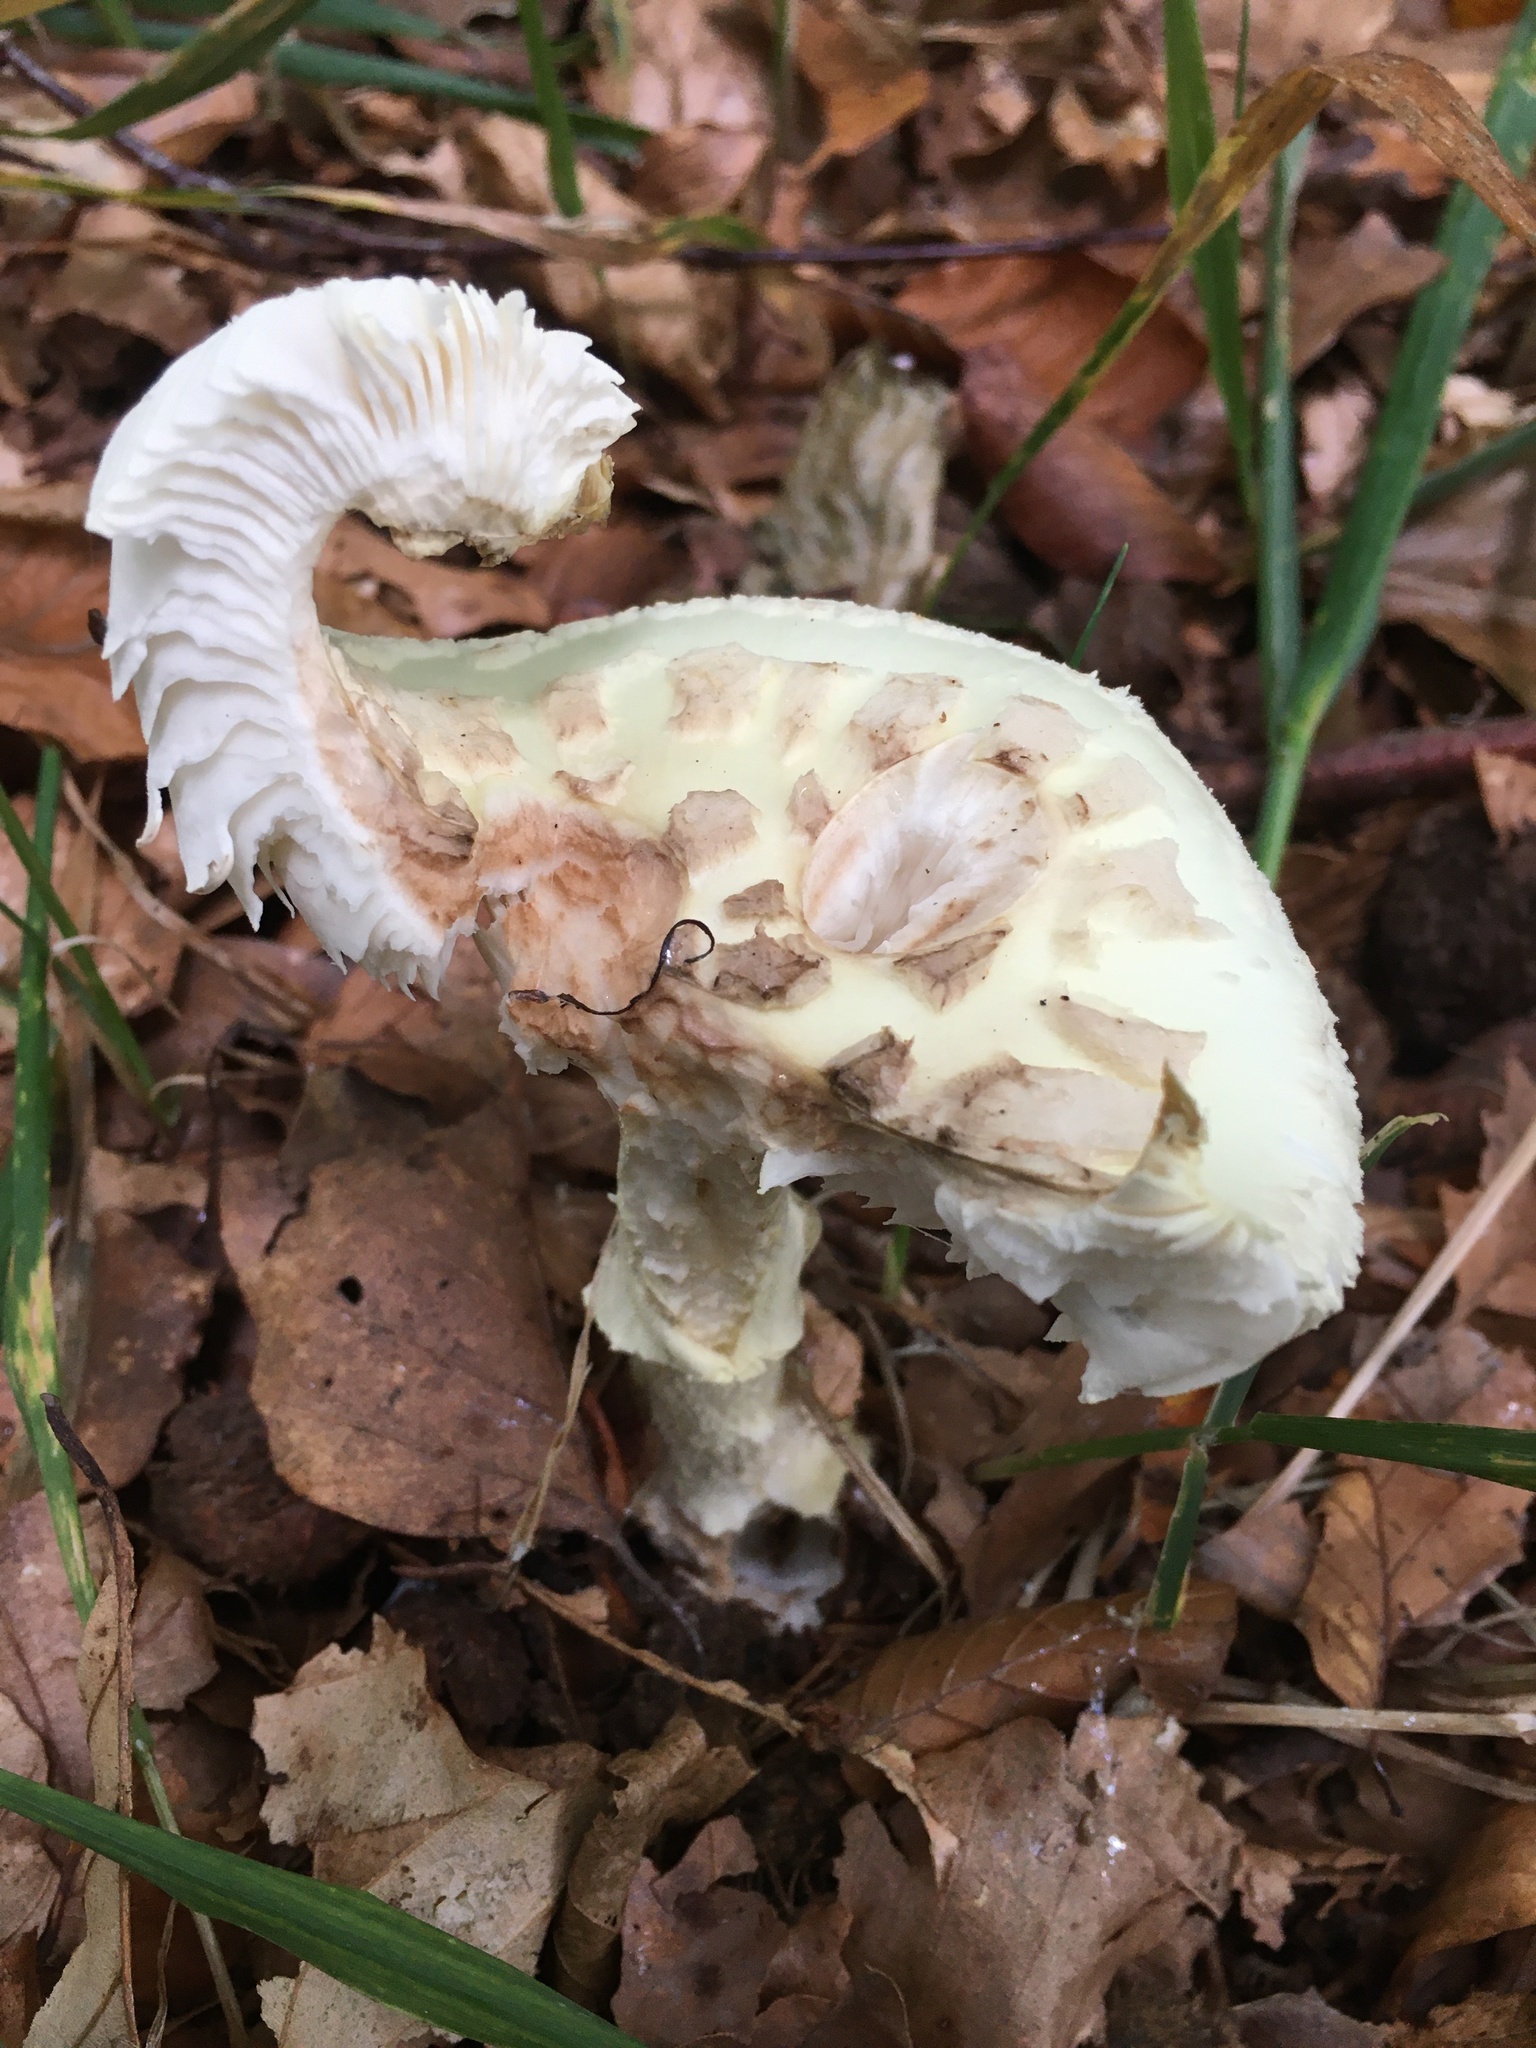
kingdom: Fungi
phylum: Basidiomycota
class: Agaricomycetes
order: Agaricales
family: Amanitaceae
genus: Amanita
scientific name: Amanita citrina
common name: False death-cap
